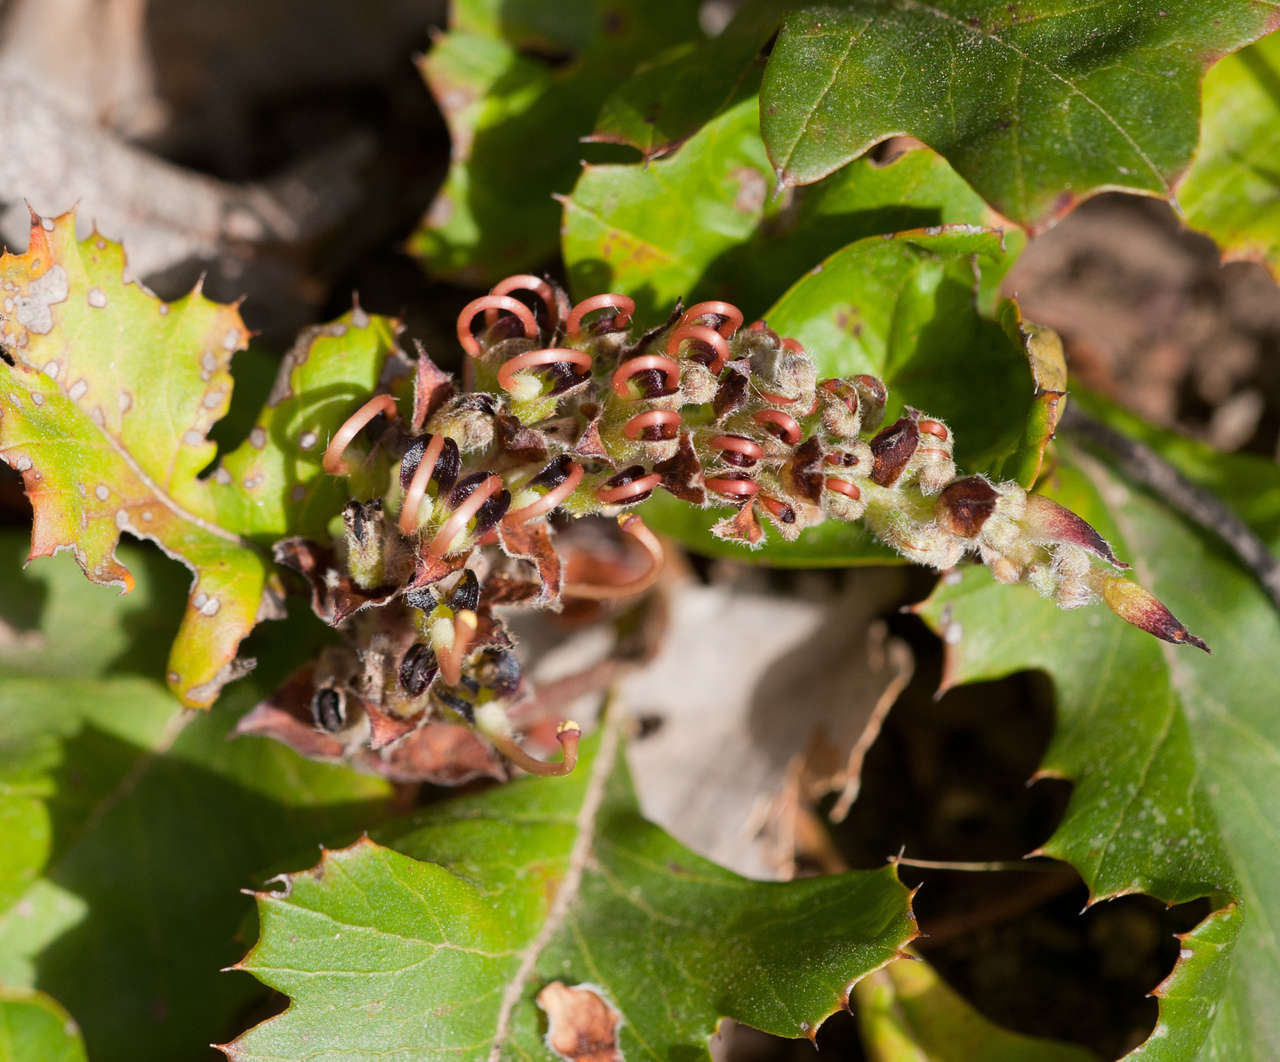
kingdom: Plantae
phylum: Tracheophyta
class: Magnoliopsida
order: Proteales
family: Proteaceae
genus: Grevillea
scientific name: Grevillea obtecta
